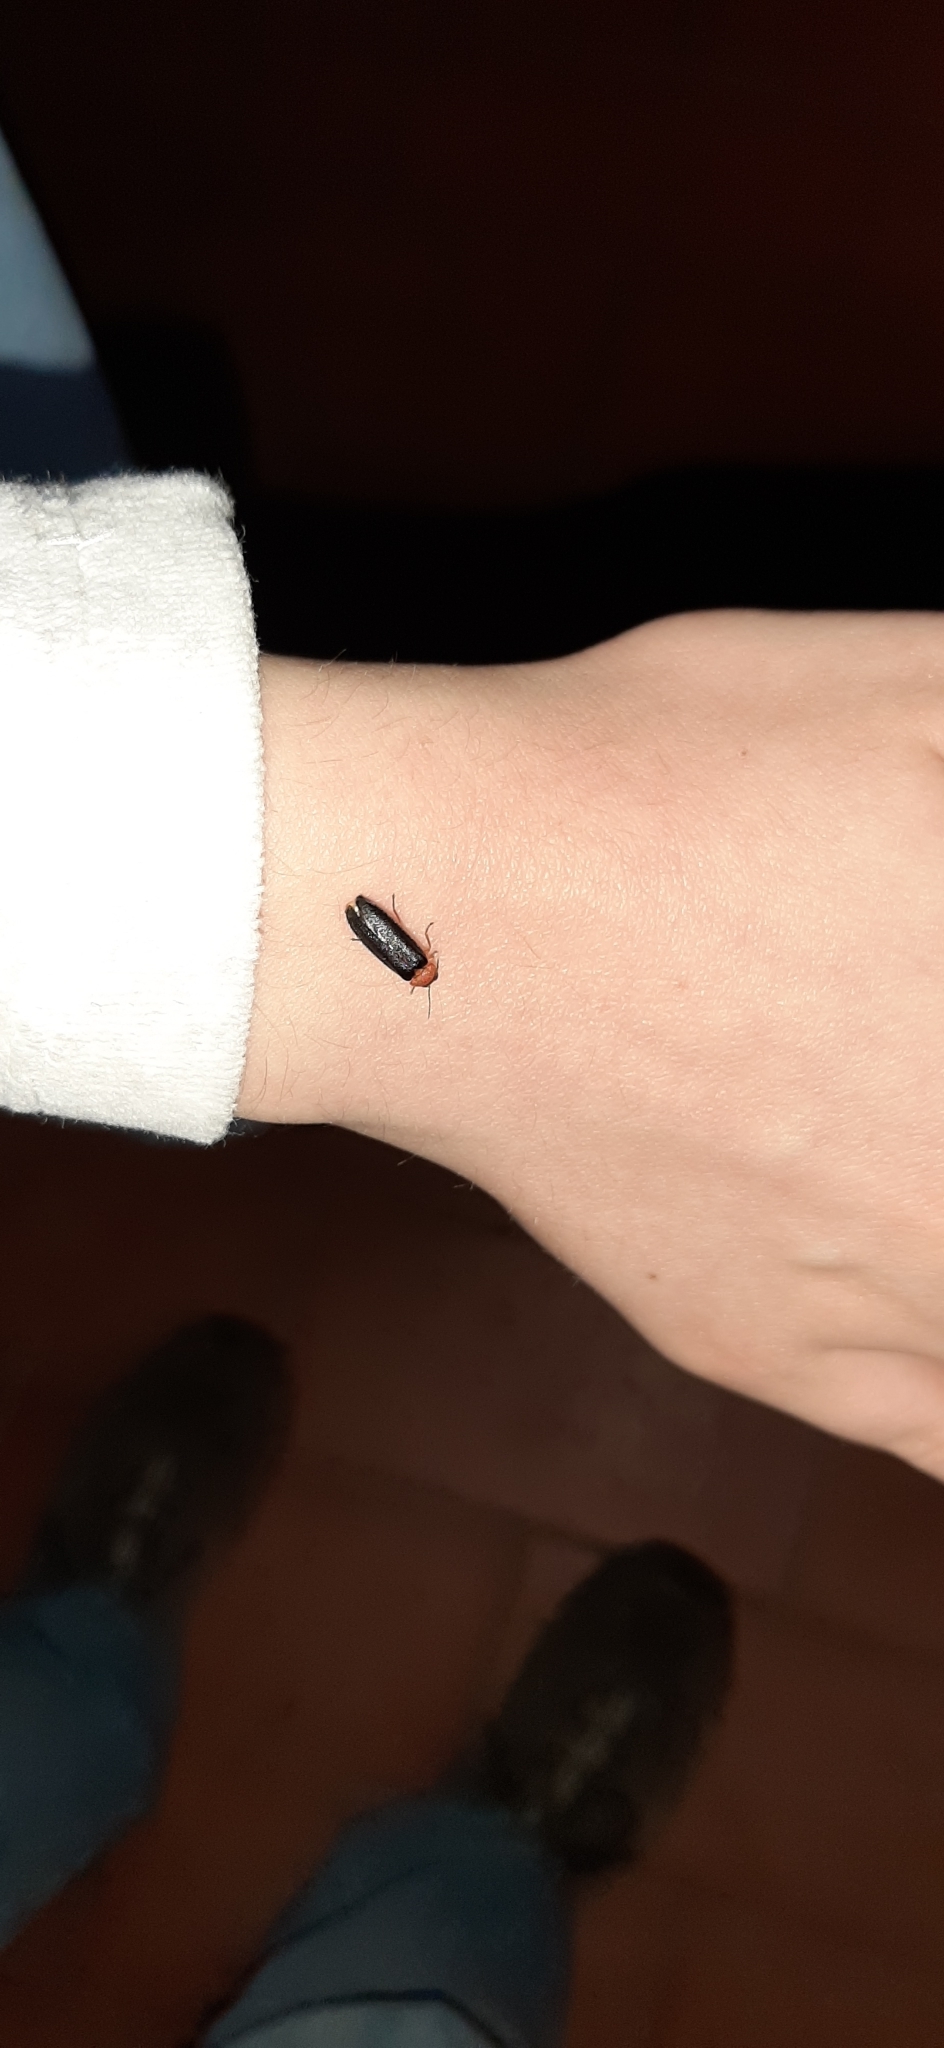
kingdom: Animalia
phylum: Arthropoda
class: Insecta
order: Coleoptera
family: Lampyridae
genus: Luciola
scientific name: Luciola lusitanica
